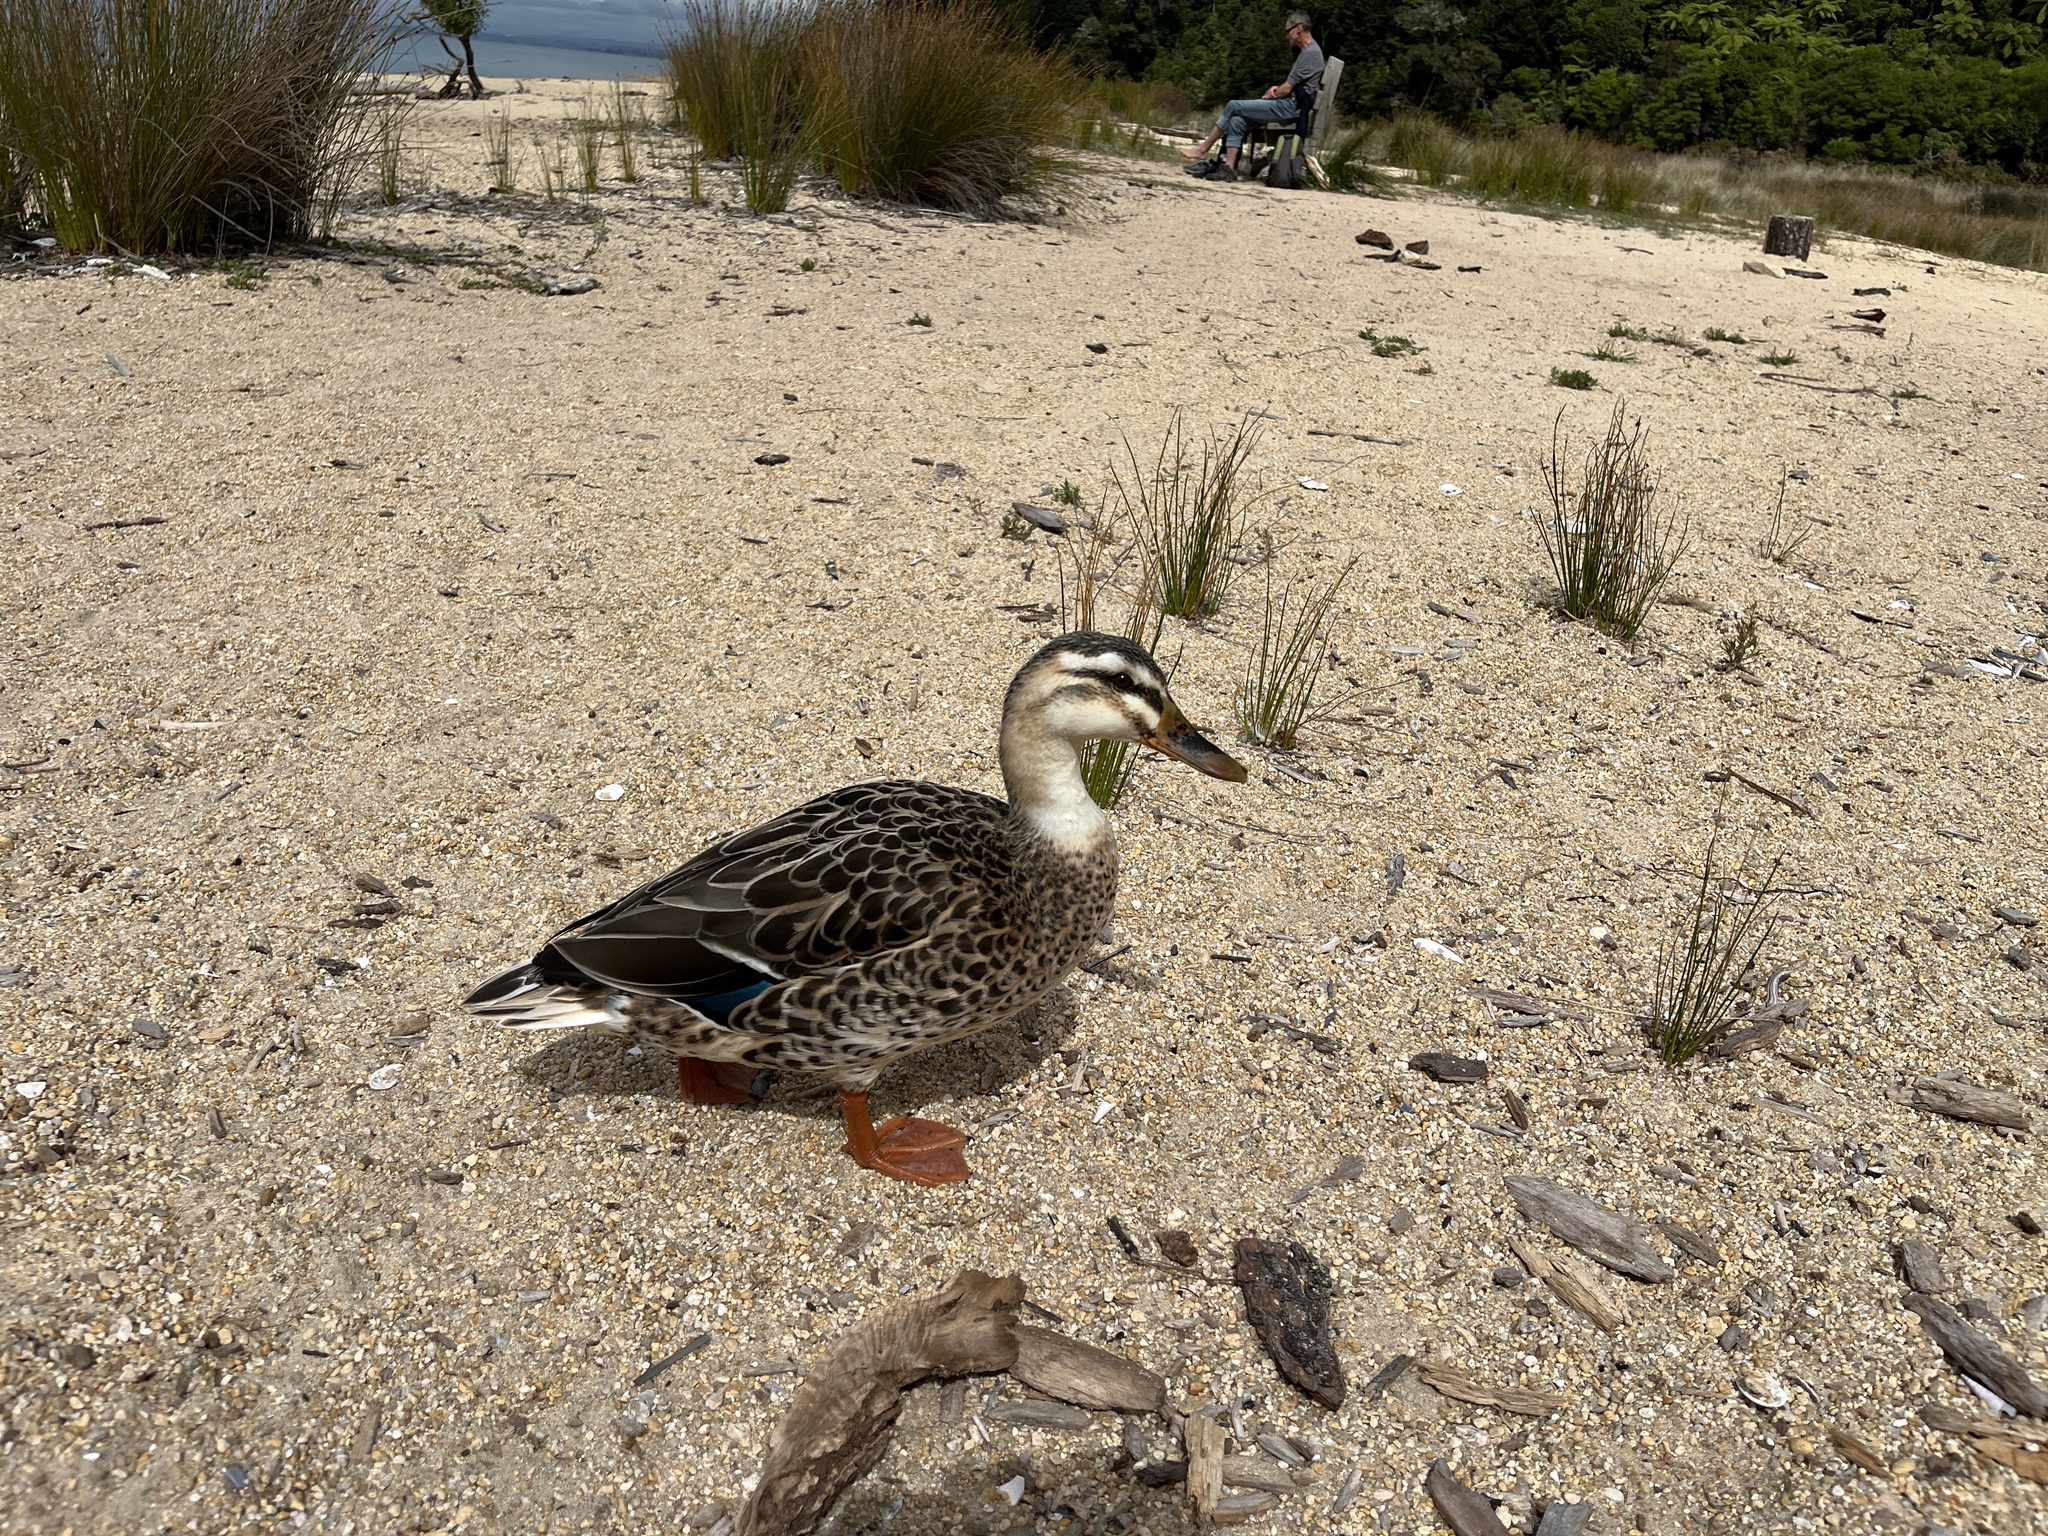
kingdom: Animalia
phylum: Chordata
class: Aves
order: Anseriformes
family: Anatidae
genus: Anas
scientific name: Anas
